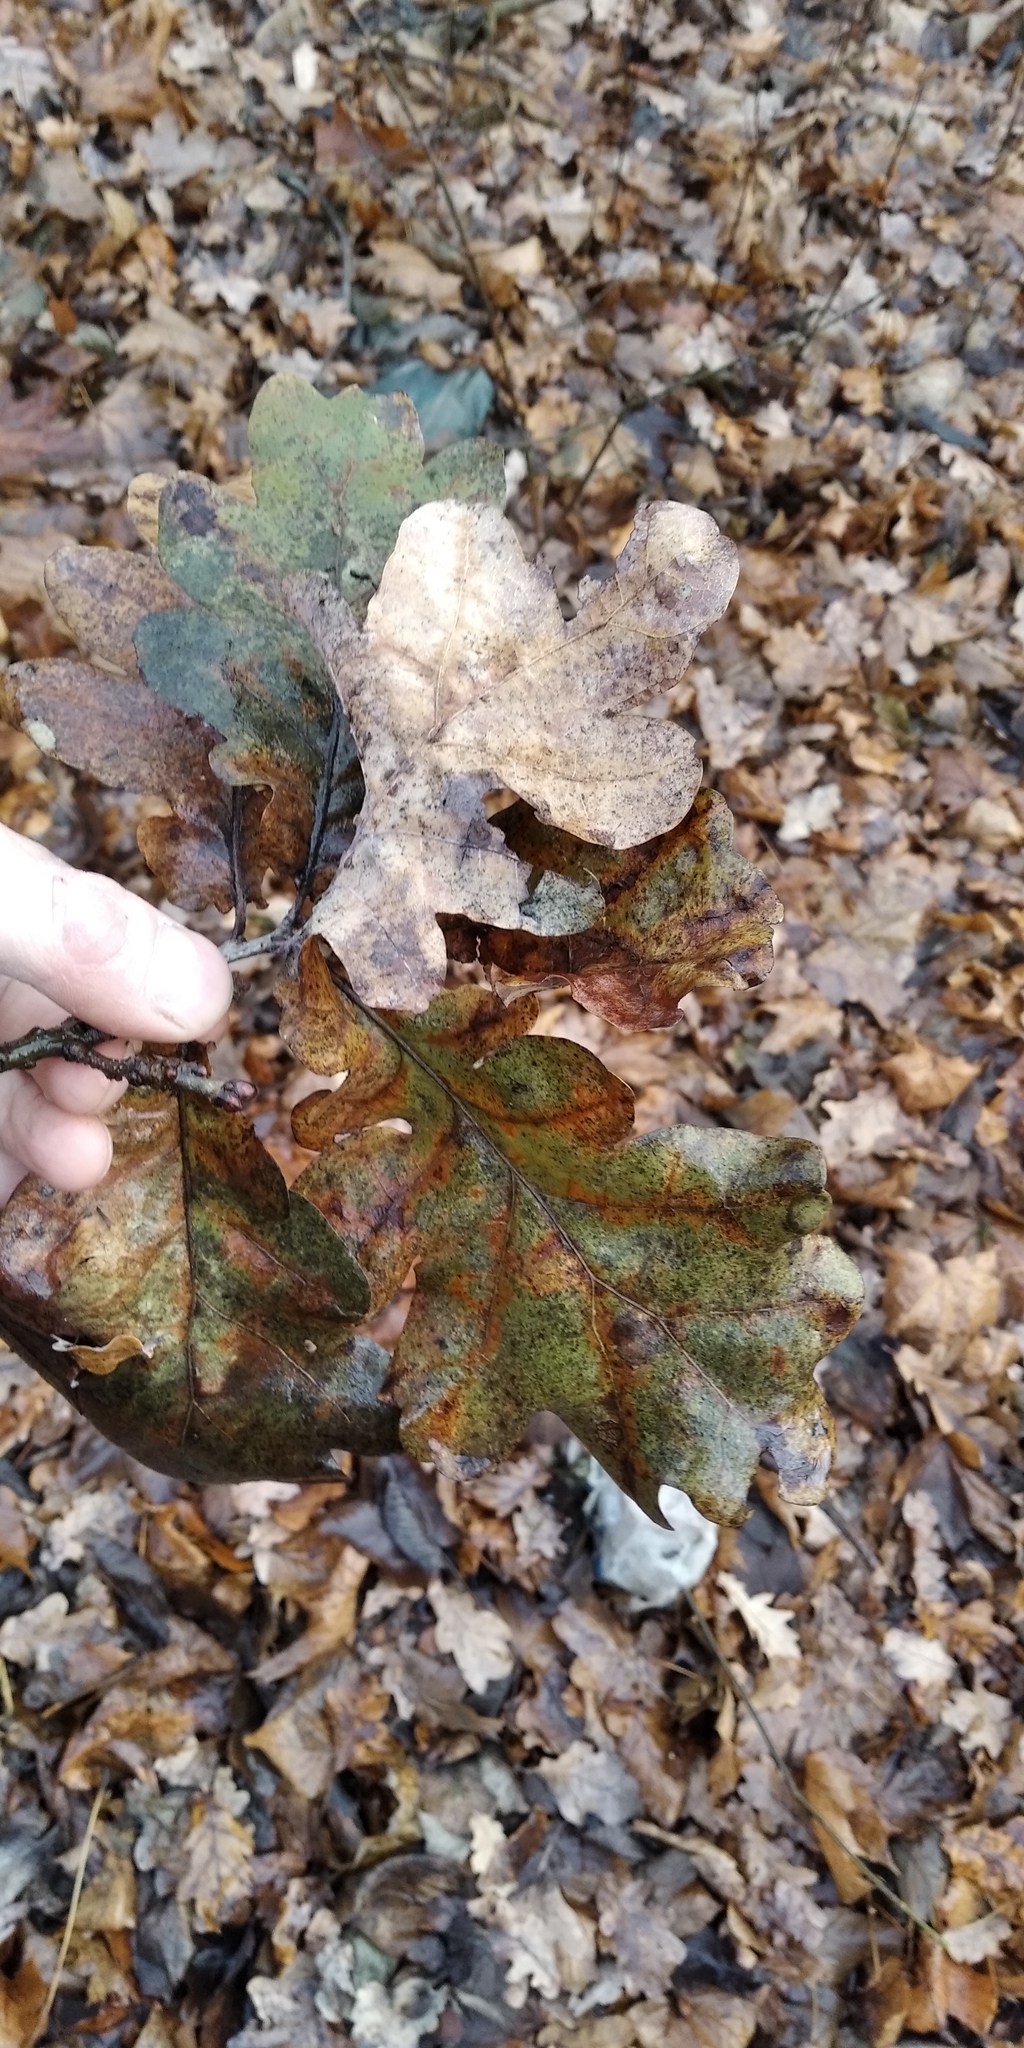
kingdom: Plantae
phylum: Tracheophyta
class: Magnoliopsida
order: Fagales
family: Fagaceae
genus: Quercus
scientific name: Quercus robur
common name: Pedunculate oak
